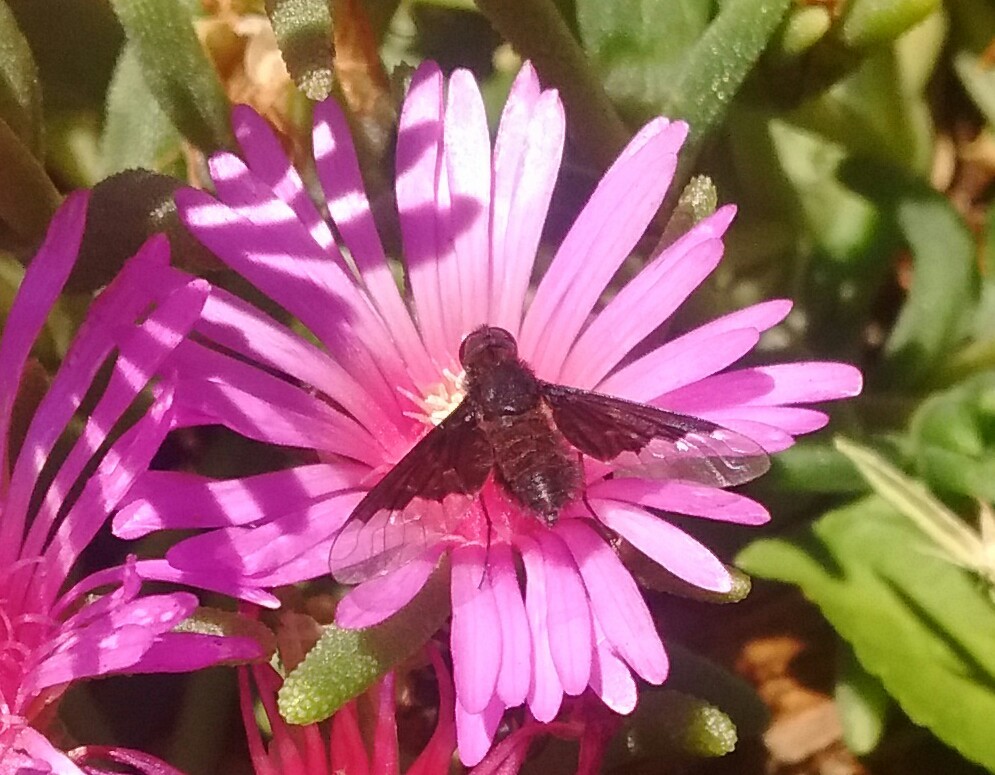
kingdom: Animalia
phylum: Arthropoda
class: Insecta
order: Diptera
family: Bombyliidae
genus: Hemipenthes
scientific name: Hemipenthes morio
